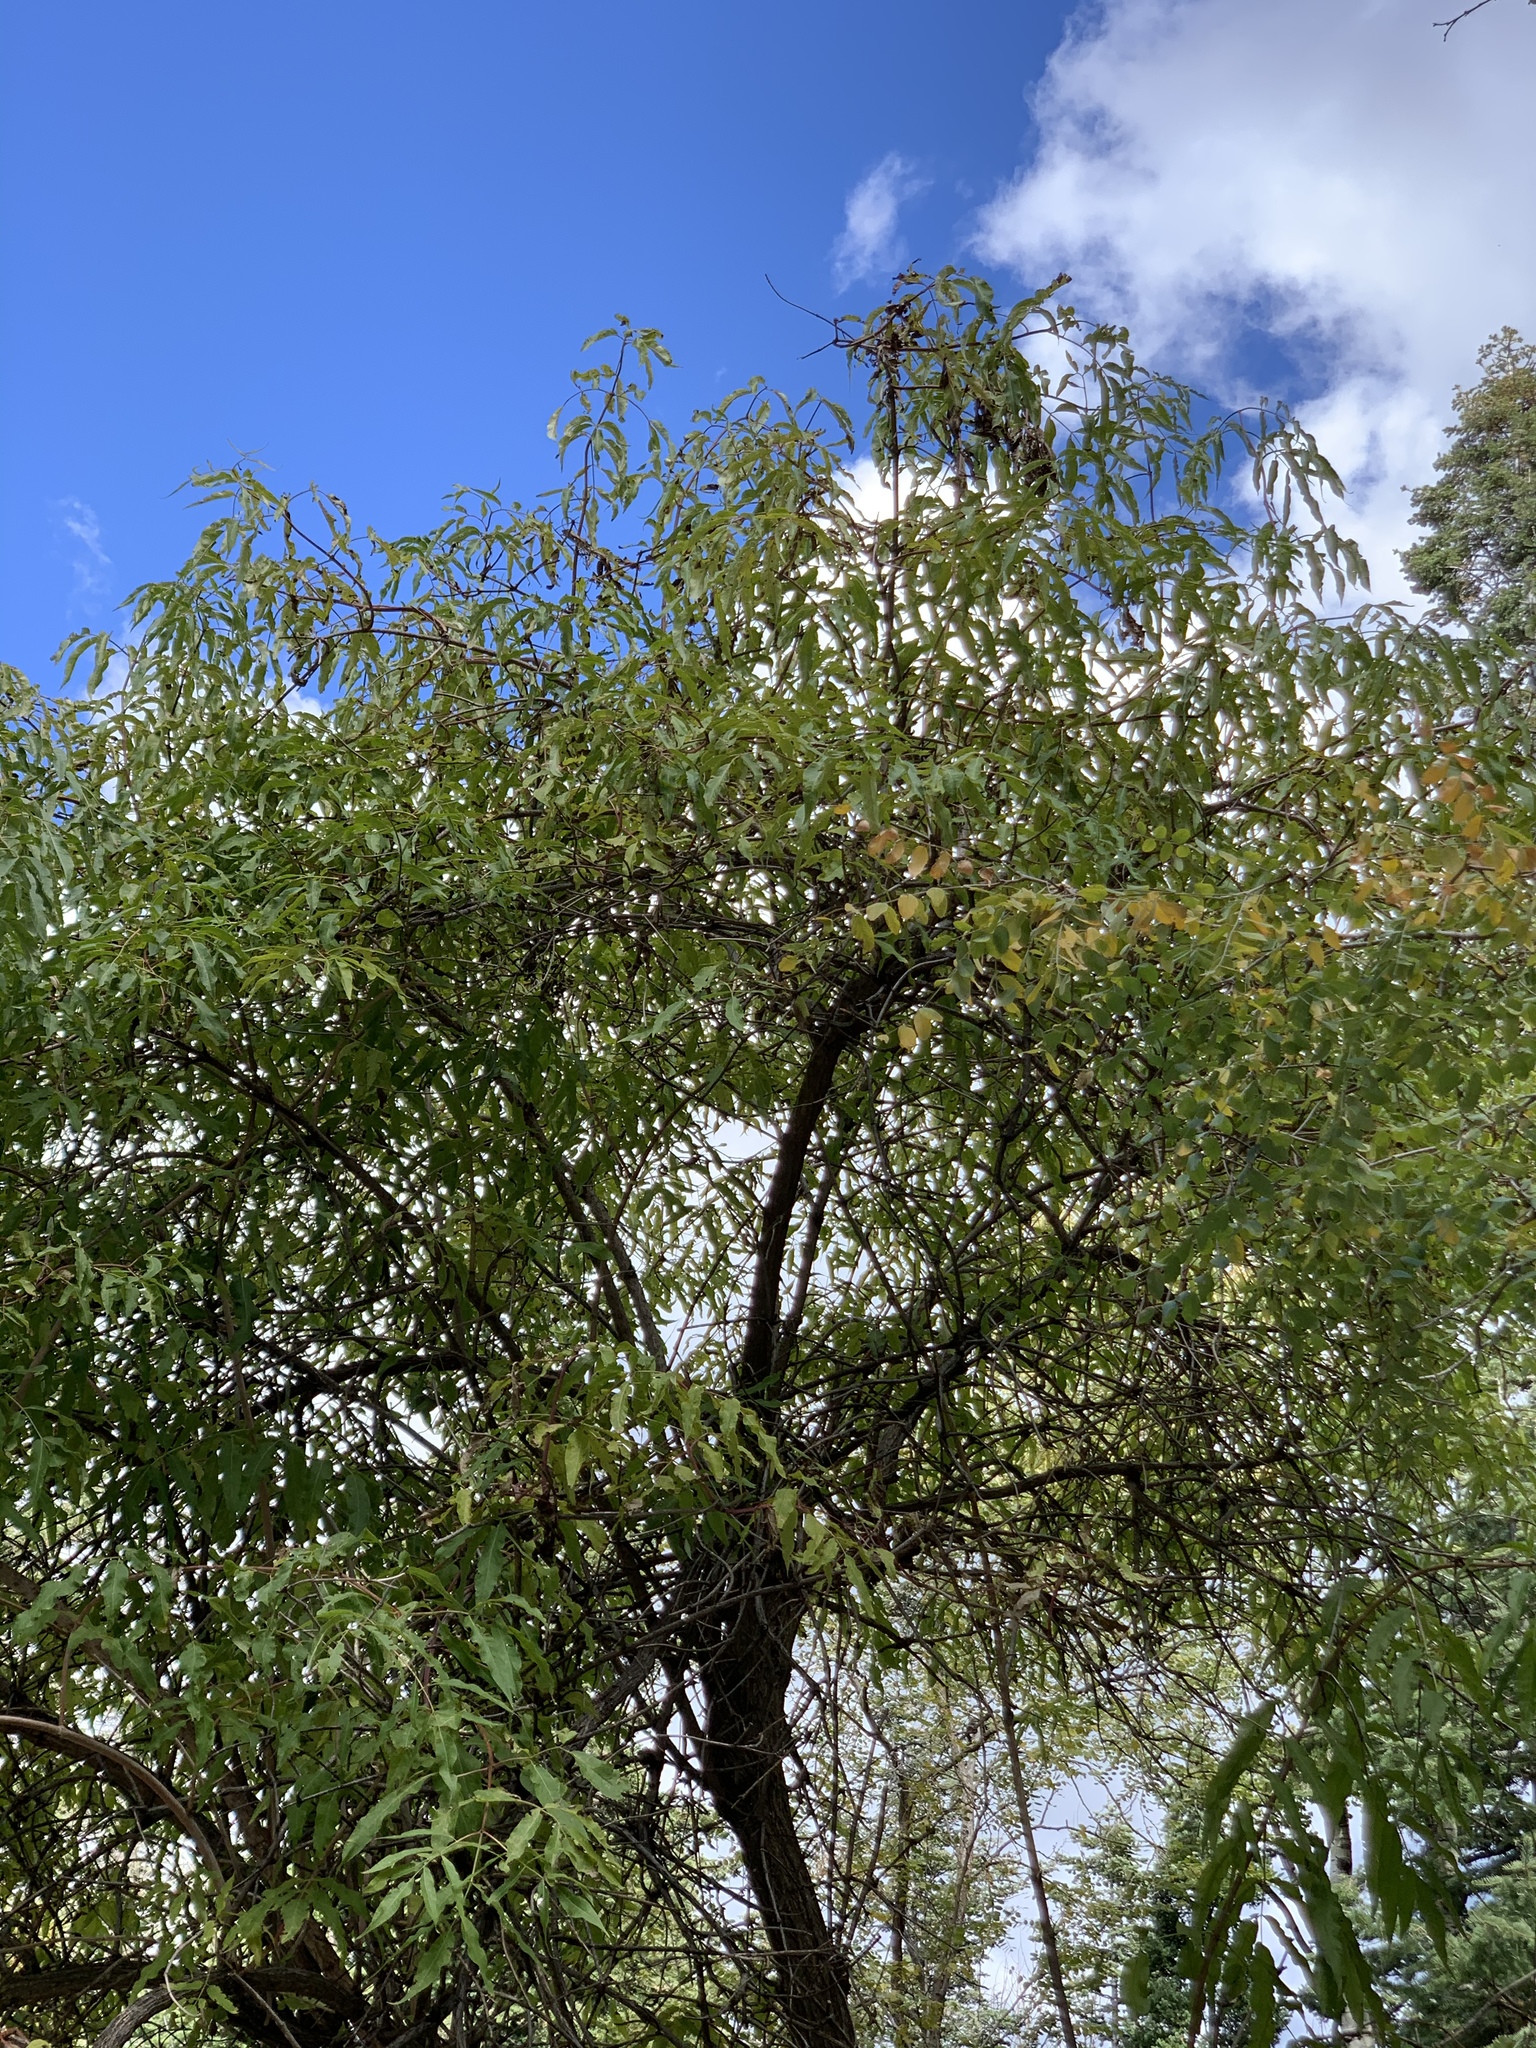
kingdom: Plantae
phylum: Tracheophyta
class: Magnoliopsida
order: Dipsacales
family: Viburnaceae
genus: Sambucus
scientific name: Sambucus cerulea
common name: Blue elder
